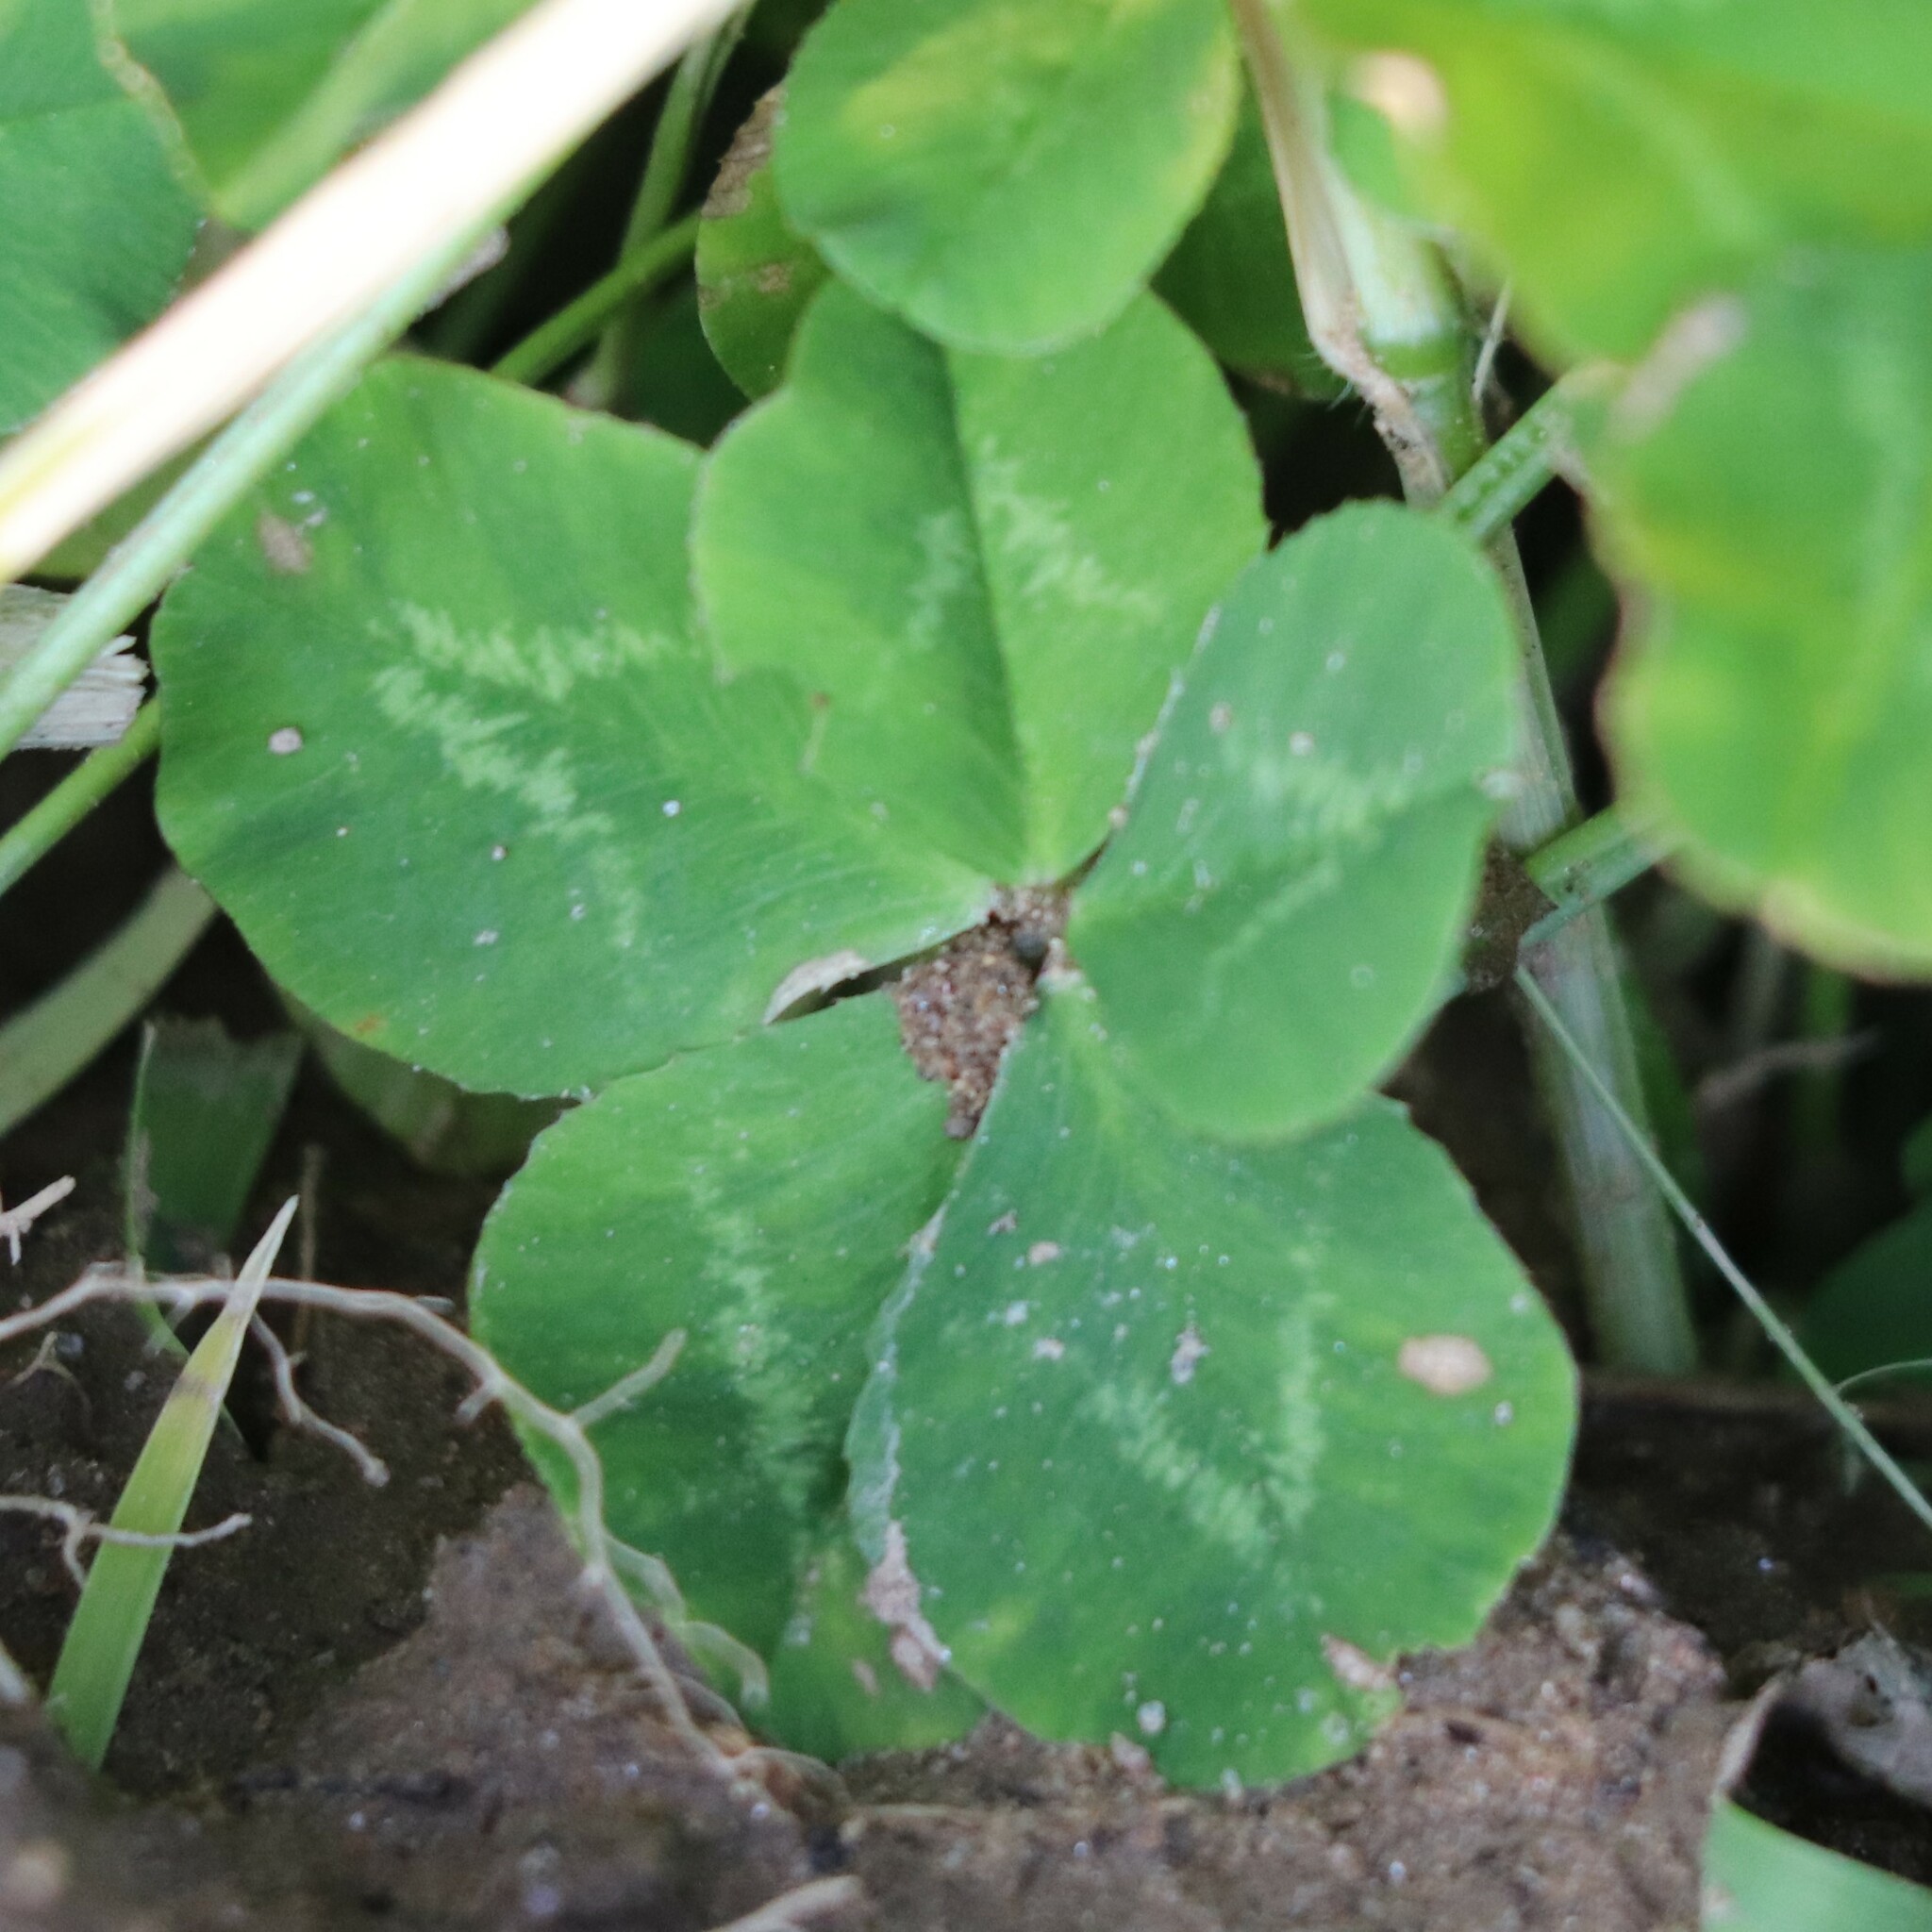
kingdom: Plantae
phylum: Tracheophyta
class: Magnoliopsida
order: Fabales
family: Fabaceae
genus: Trifolium
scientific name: Trifolium repens
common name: White clover
